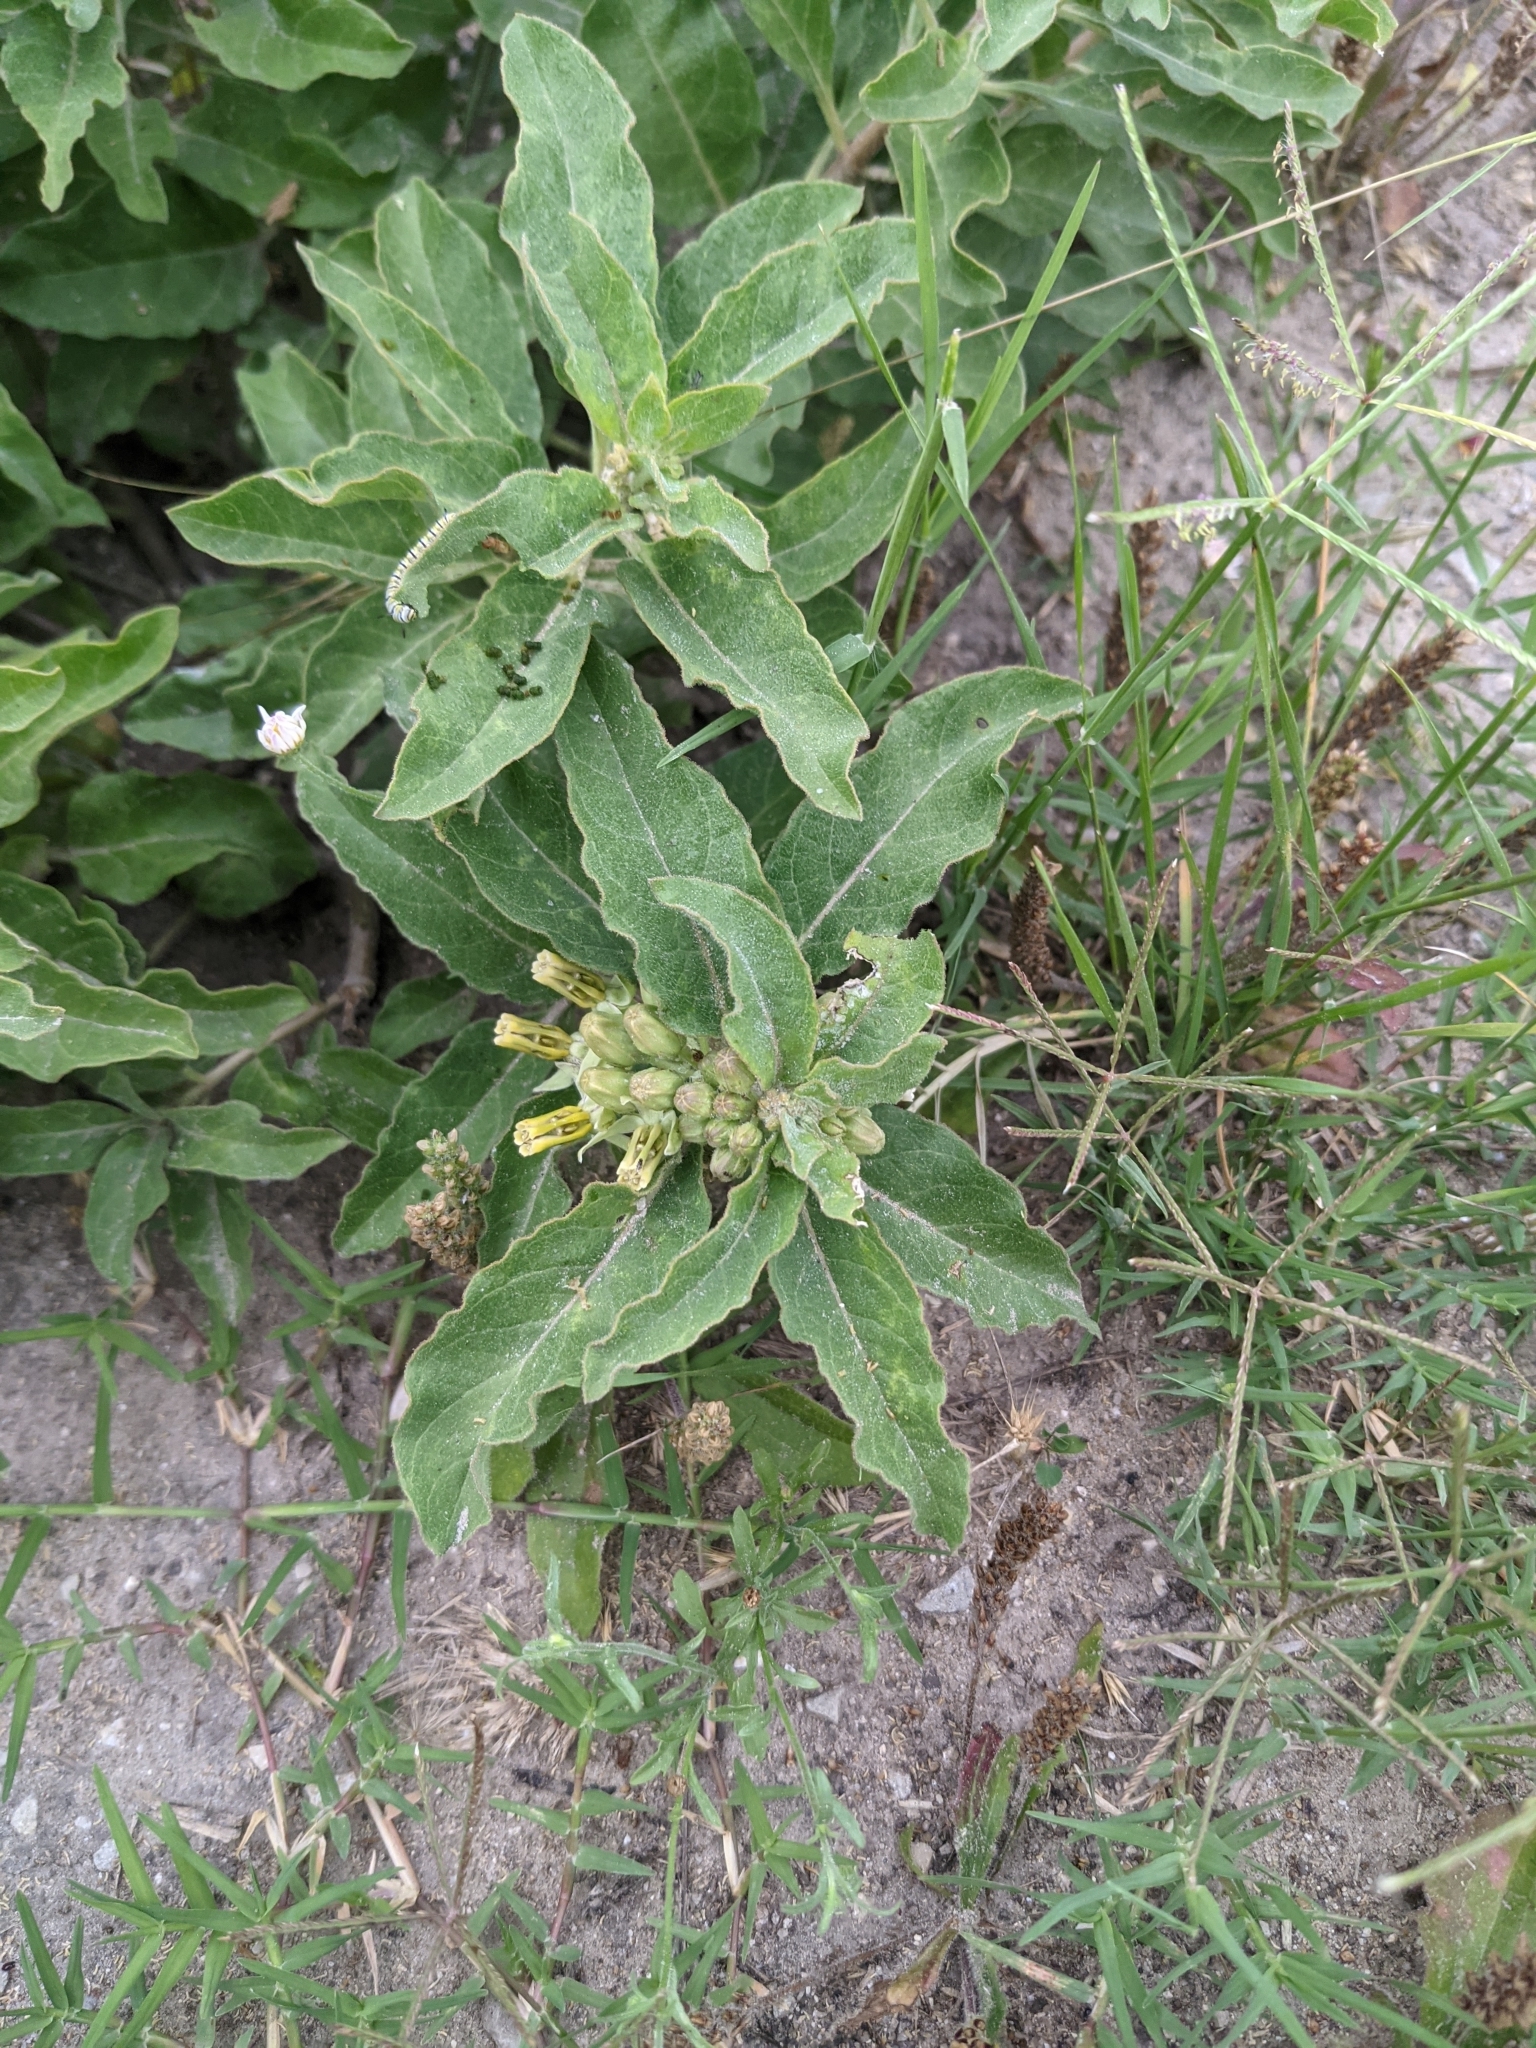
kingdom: Plantae
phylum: Tracheophyta
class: Magnoliopsida
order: Gentianales
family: Apocynaceae
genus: Asclepias
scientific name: Asclepias oenotheroides
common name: Zizotes milkweed
